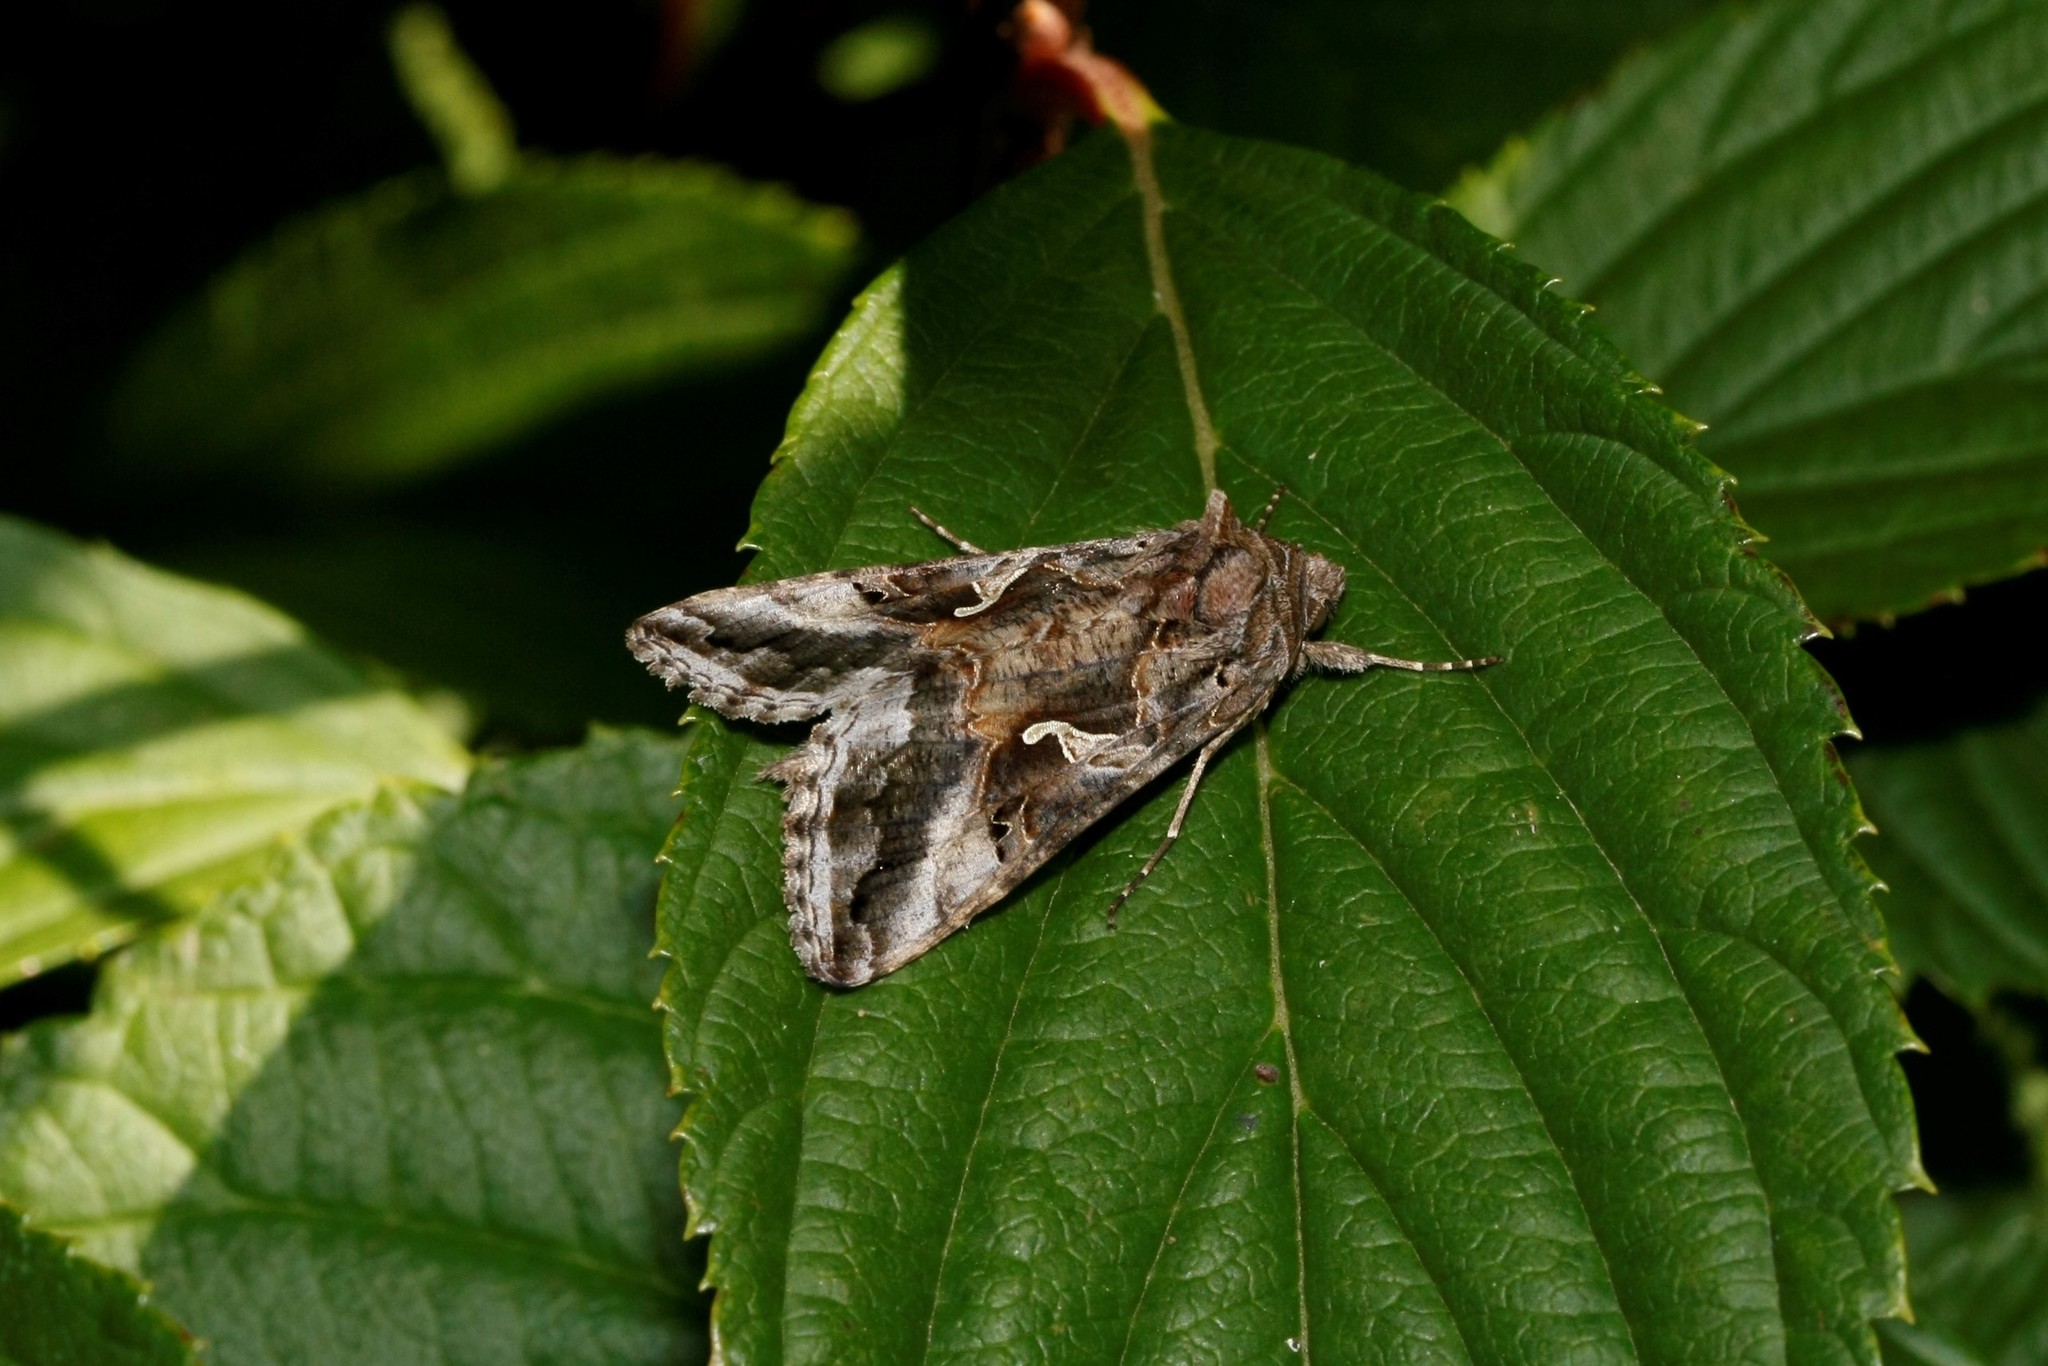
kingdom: Animalia
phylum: Arthropoda
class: Insecta
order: Lepidoptera
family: Noctuidae
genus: Autographa
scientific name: Autographa gamma
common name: Silver y
